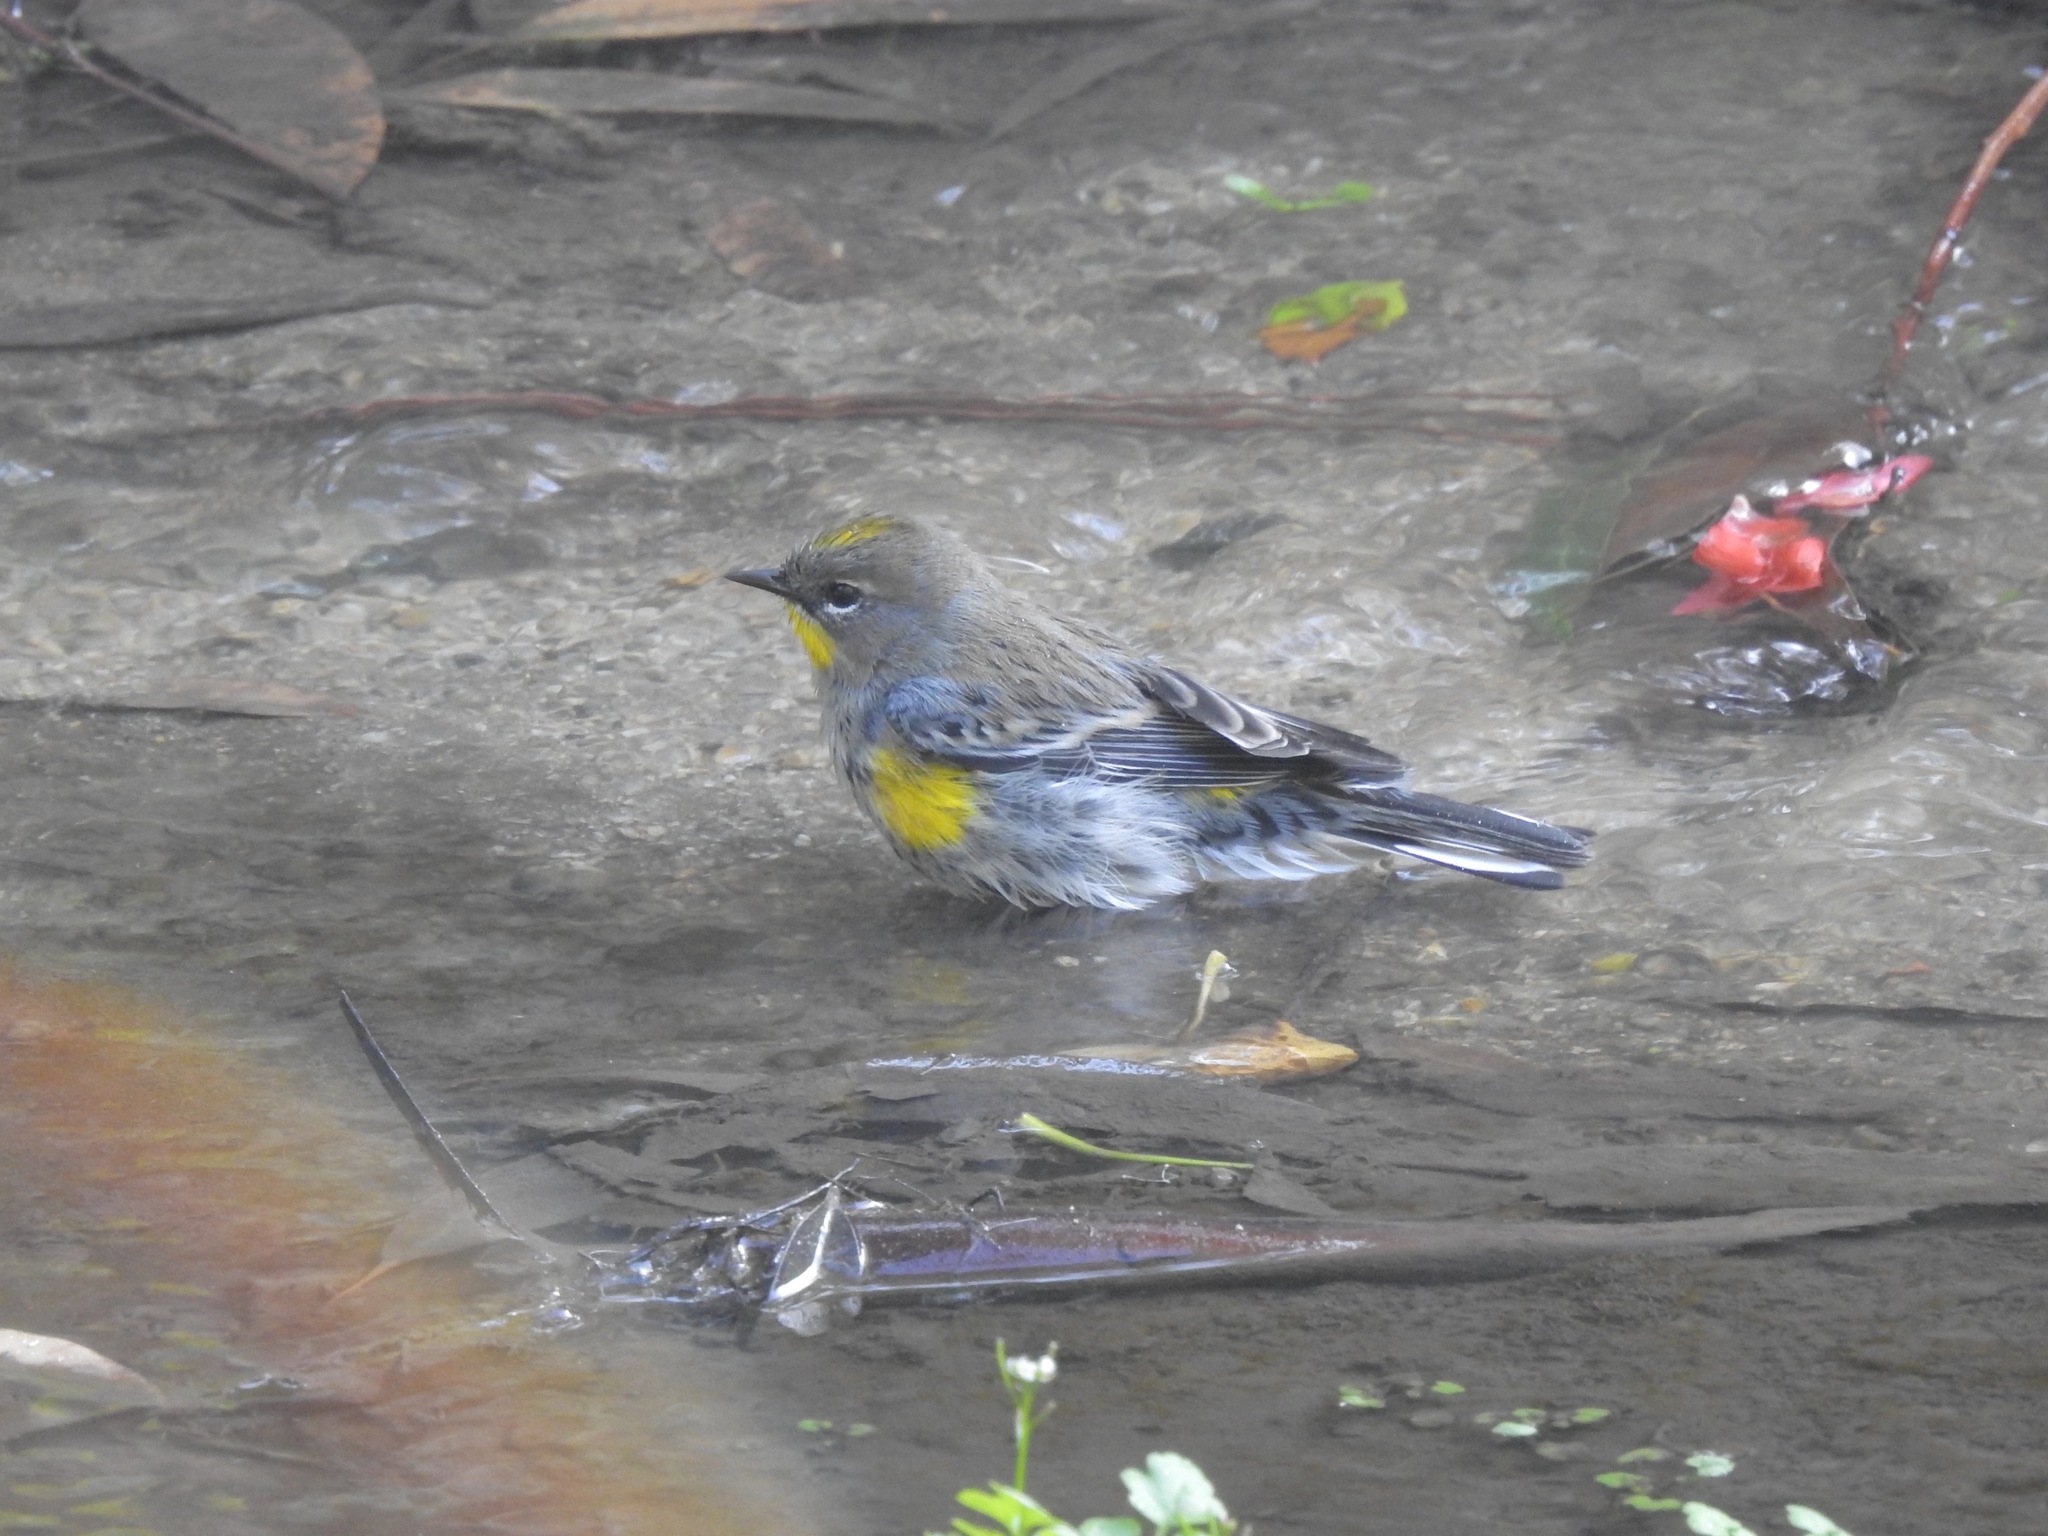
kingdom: Animalia
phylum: Chordata
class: Aves
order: Passeriformes
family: Parulidae
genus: Setophaga
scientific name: Setophaga auduboni
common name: Audubon's warbler
